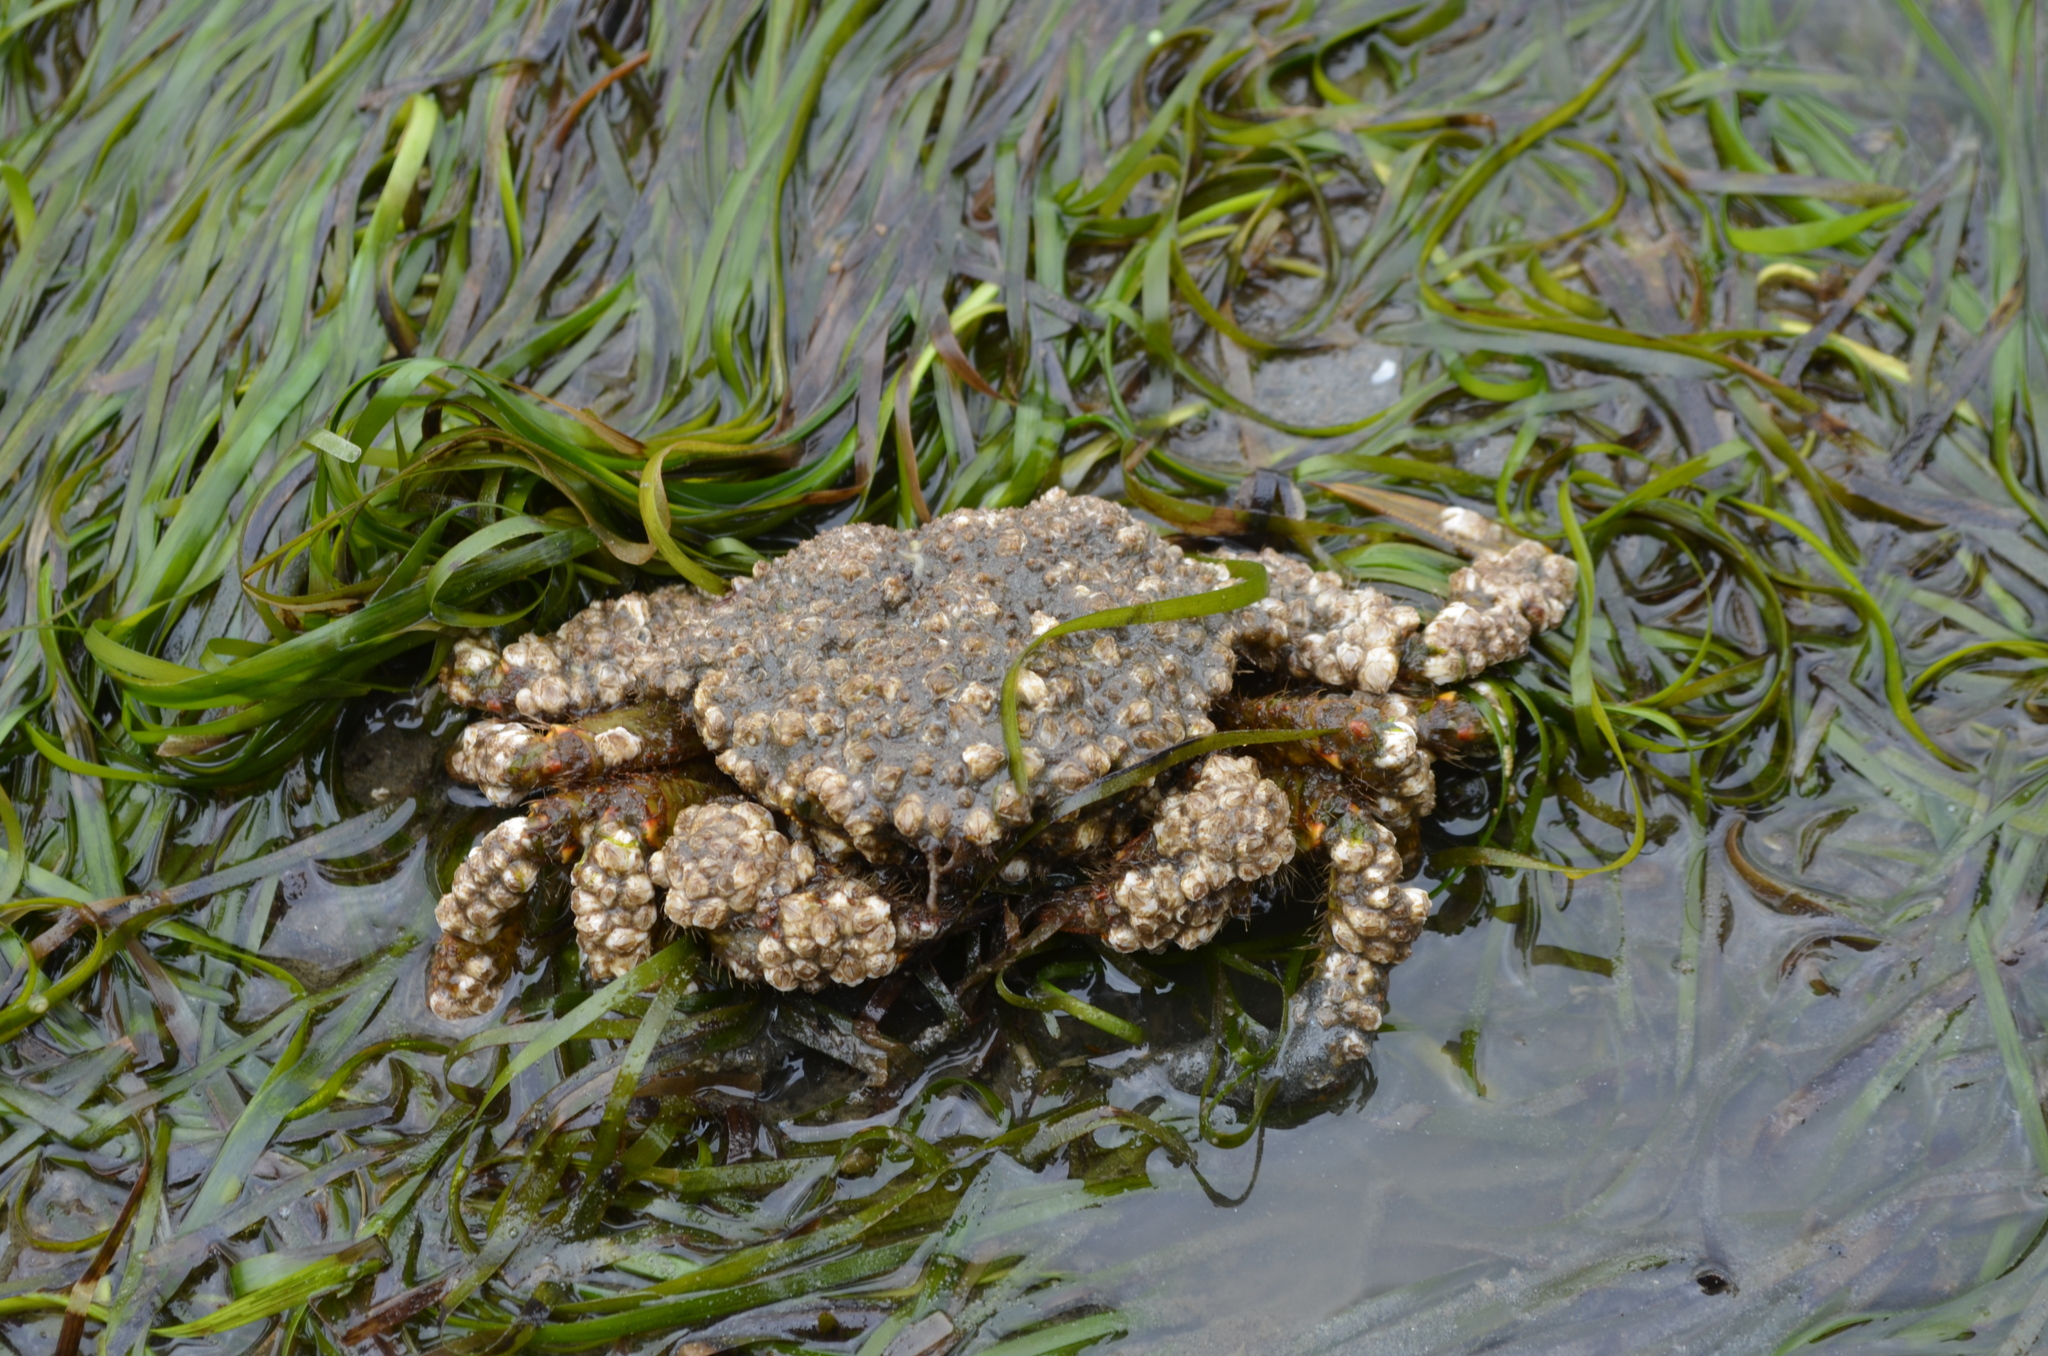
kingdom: Animalia
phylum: Arthropoda
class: Malacostraca
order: Decapoda
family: Cheiragonidae
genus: Telmessus
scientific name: Telmessus cheiragonus
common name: Helmet crab
